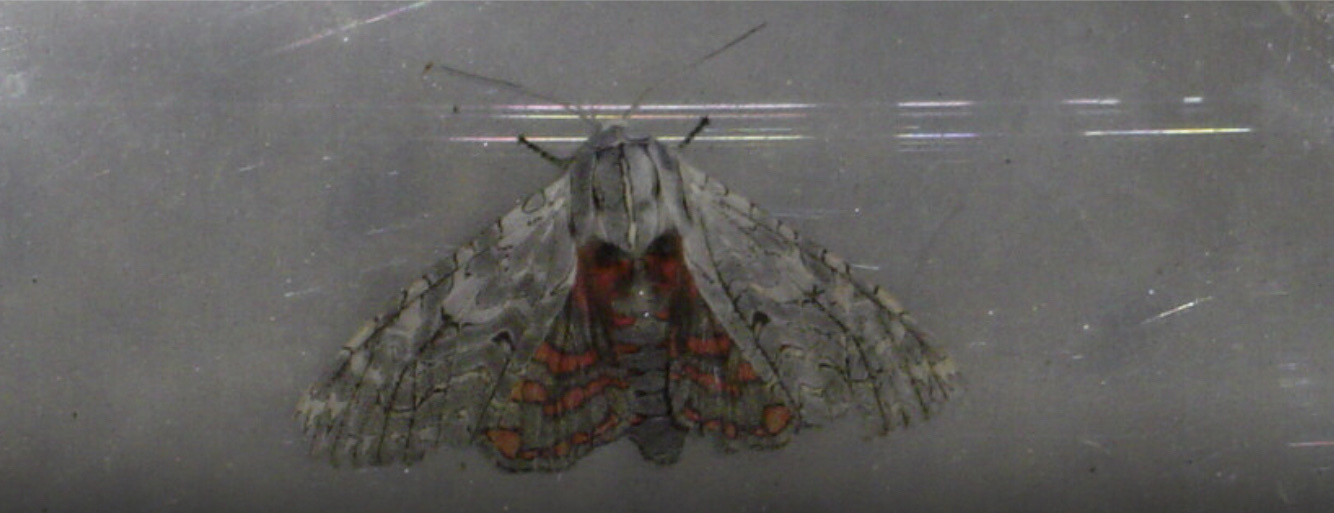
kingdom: Animalia
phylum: Arthropoda
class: Insecta
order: Lepidoptera
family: Erebidae
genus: Arachnis
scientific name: Arachnis picta
